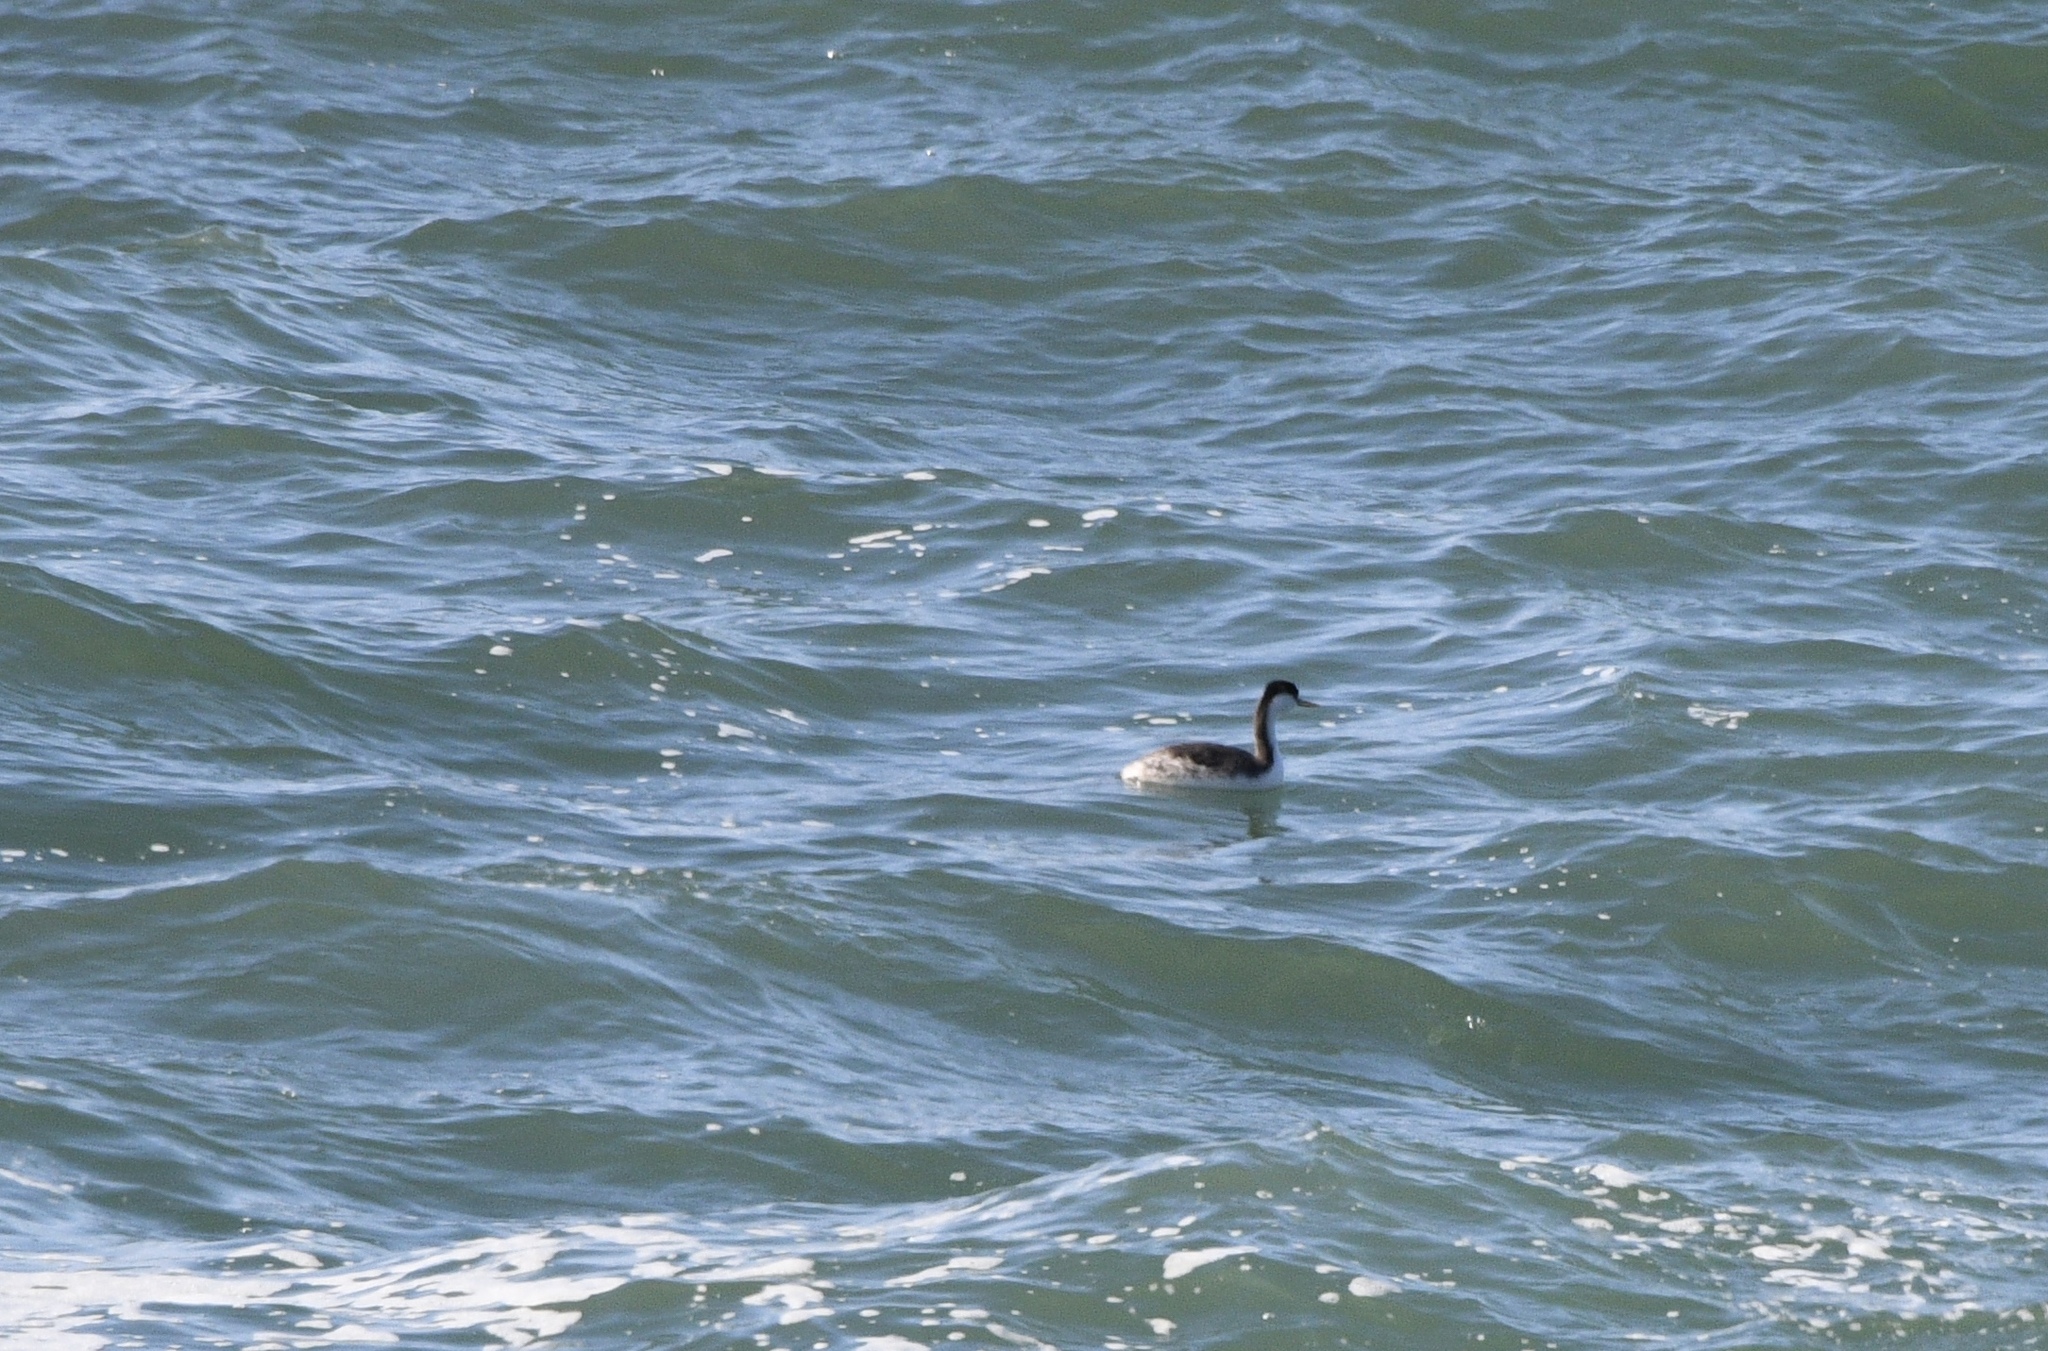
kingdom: Animalia
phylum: Chordata
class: Aves
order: Podicipediformes
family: Podicipedidae
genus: Aechmophorus
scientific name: Aechmophorus occidentalis
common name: Western grebe
